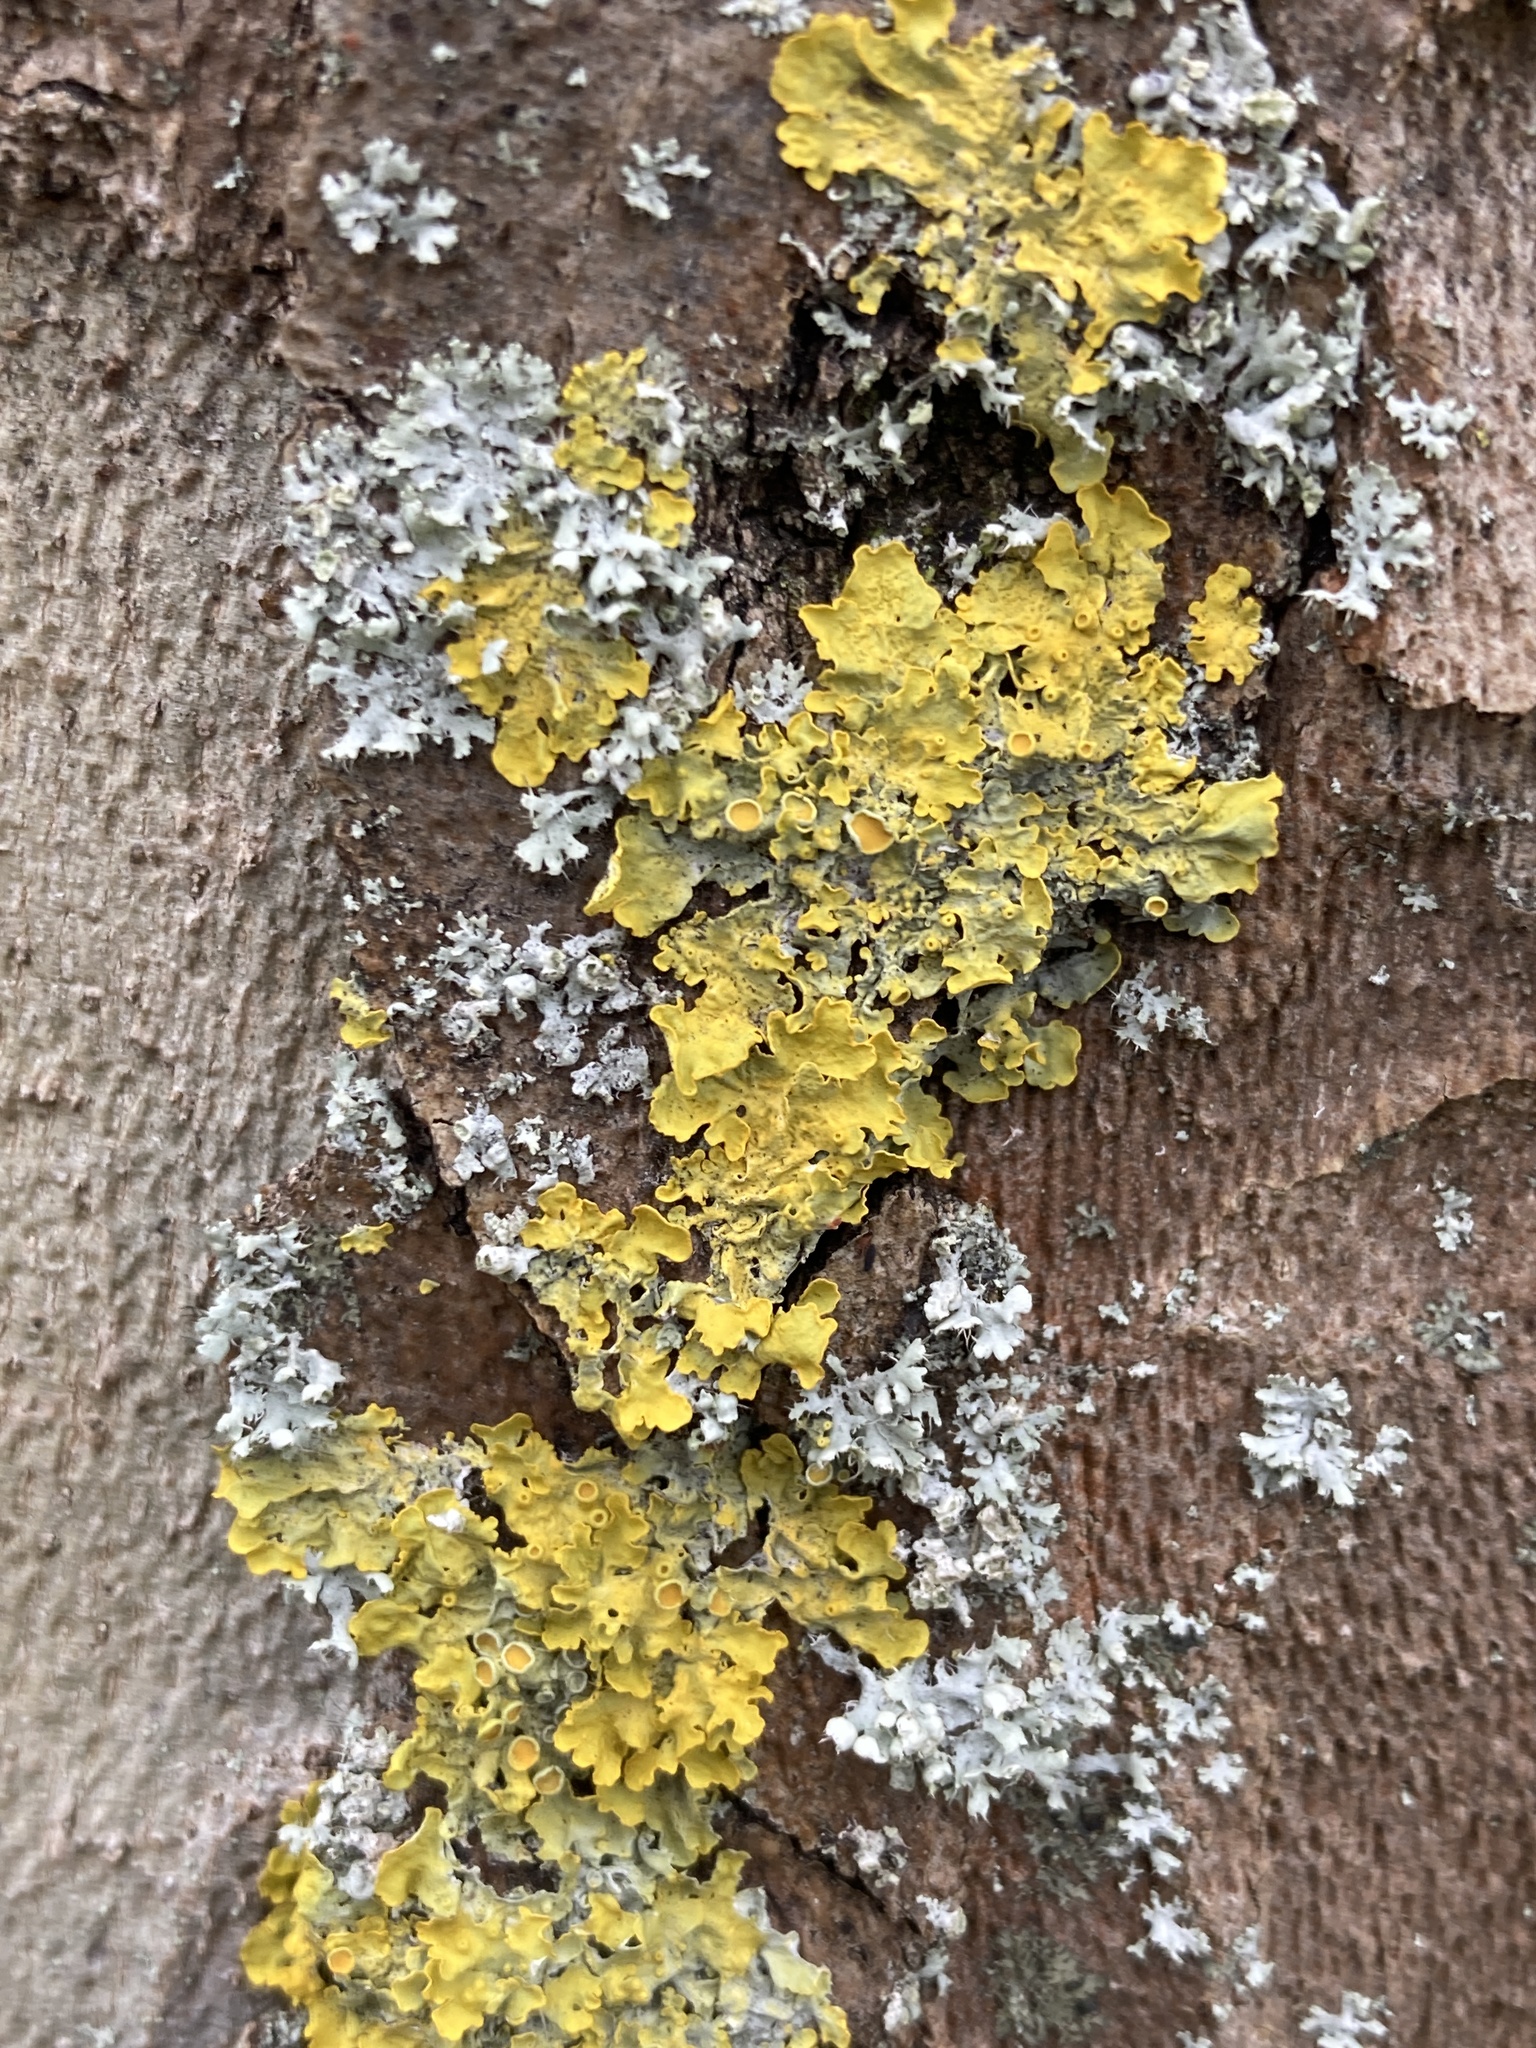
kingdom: Fungi
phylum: Ascomycota
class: Lecanoromycetes
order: Teloschistales
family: Teloschistaceae
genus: Xanthoria
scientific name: Xanthoria parietina
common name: Common orange lichen
